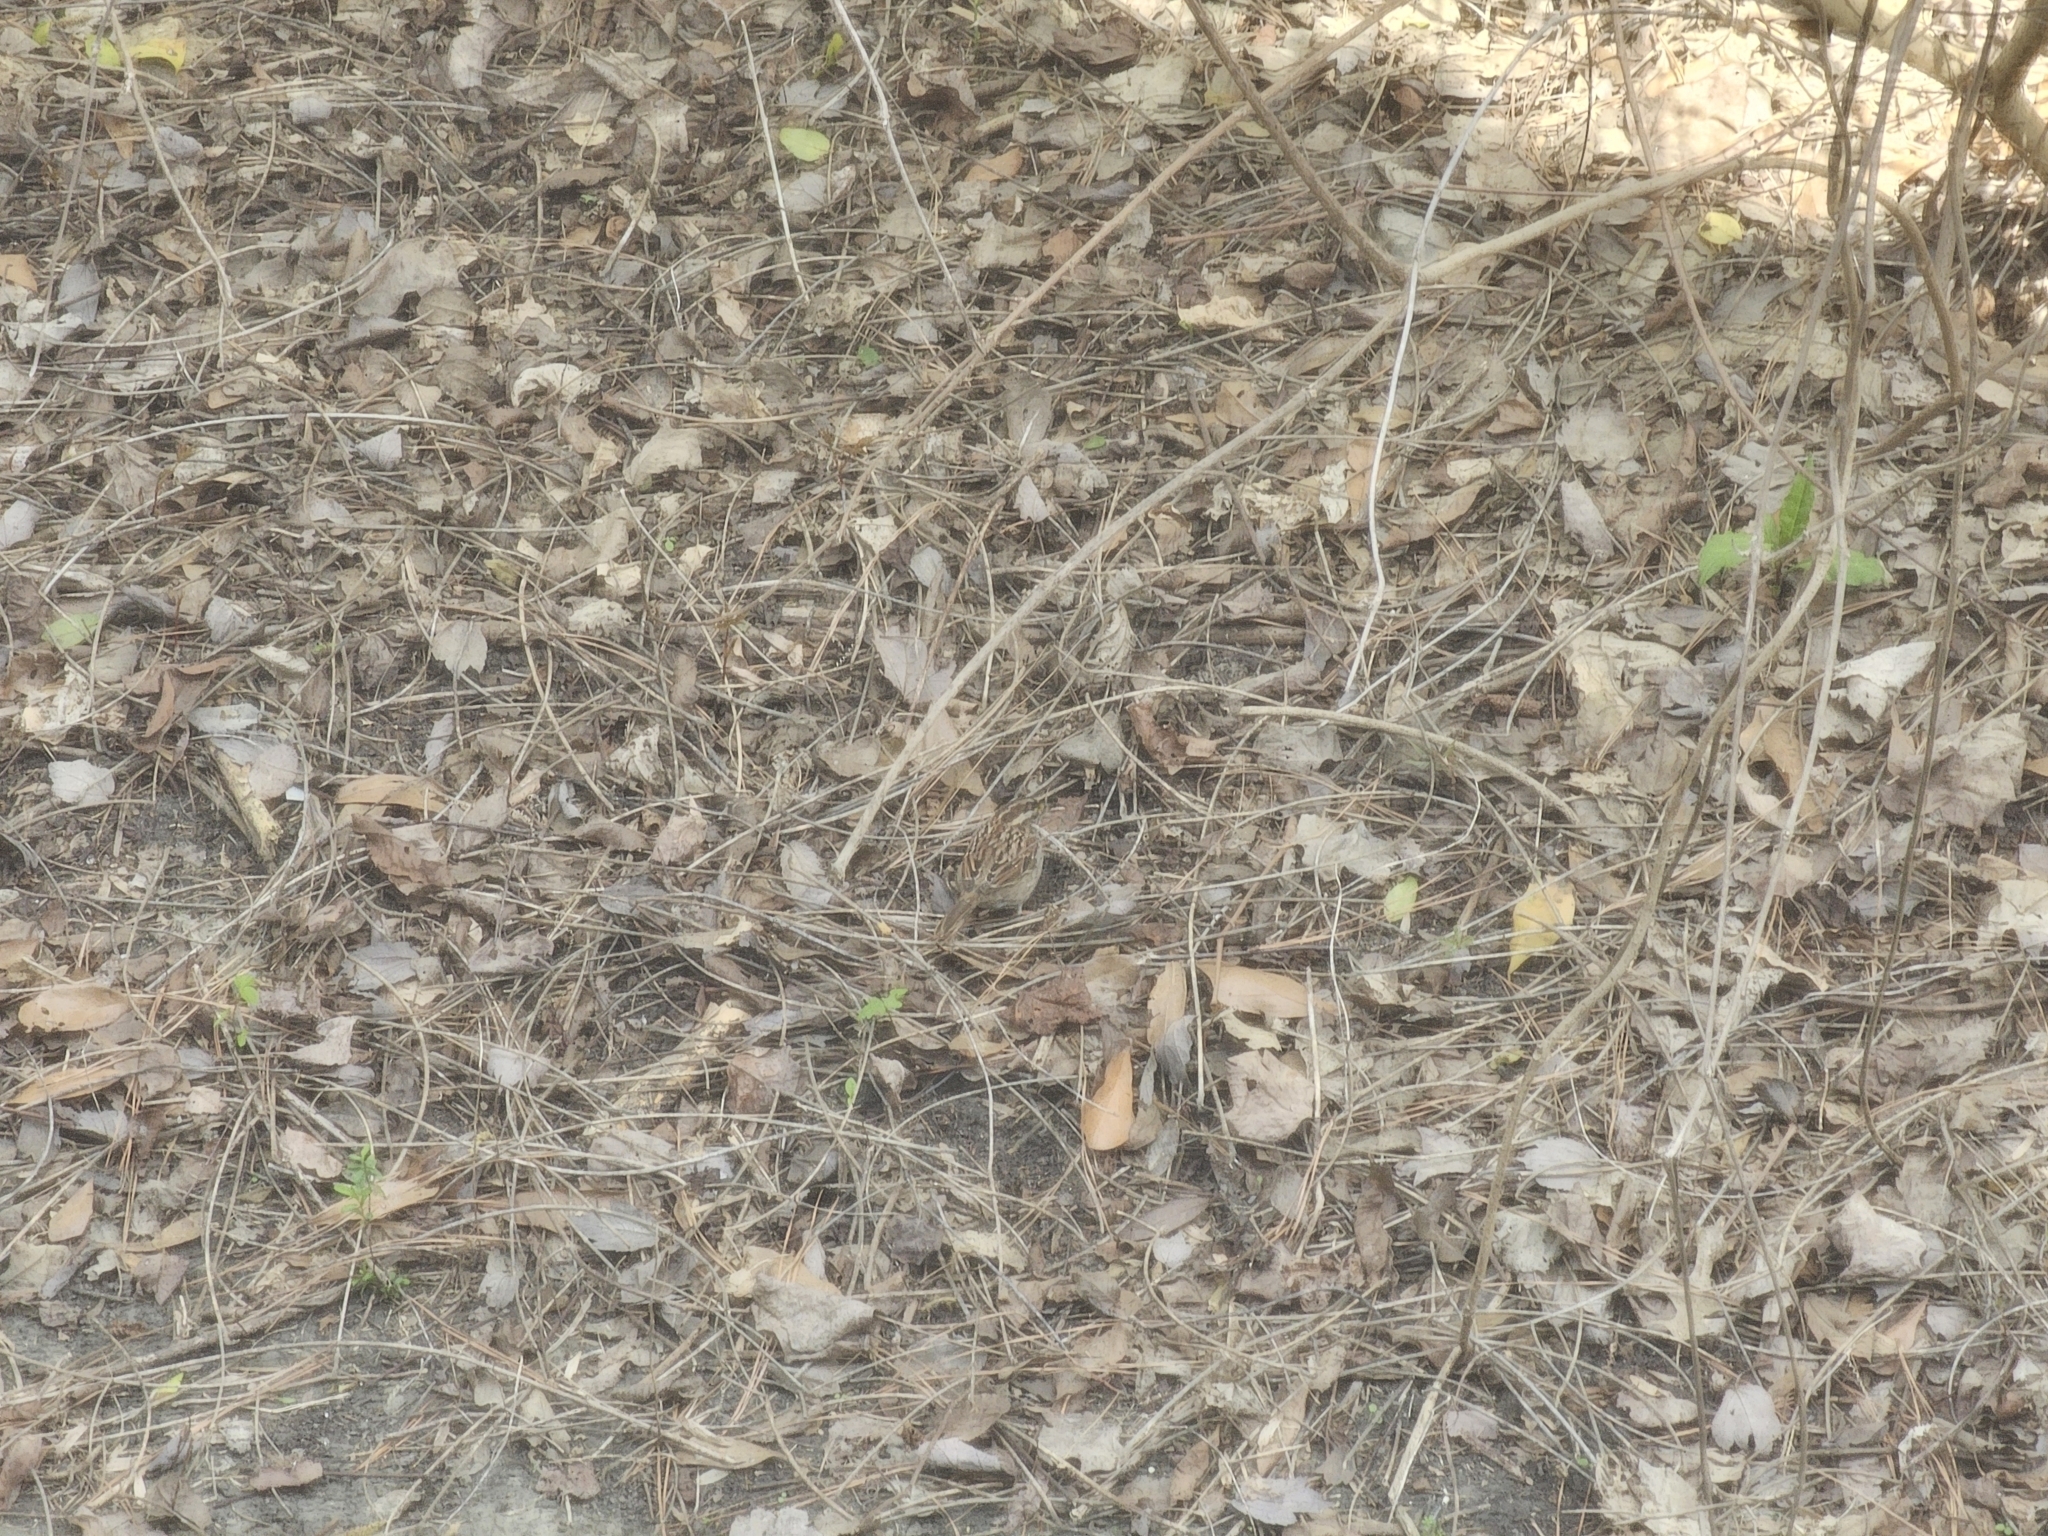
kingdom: Animalia
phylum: Chordata
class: Aves
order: Passeriformes
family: Passerellidae
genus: Zonotrichia
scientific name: Zonotrichia albicollis
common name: White-throated sparrow
